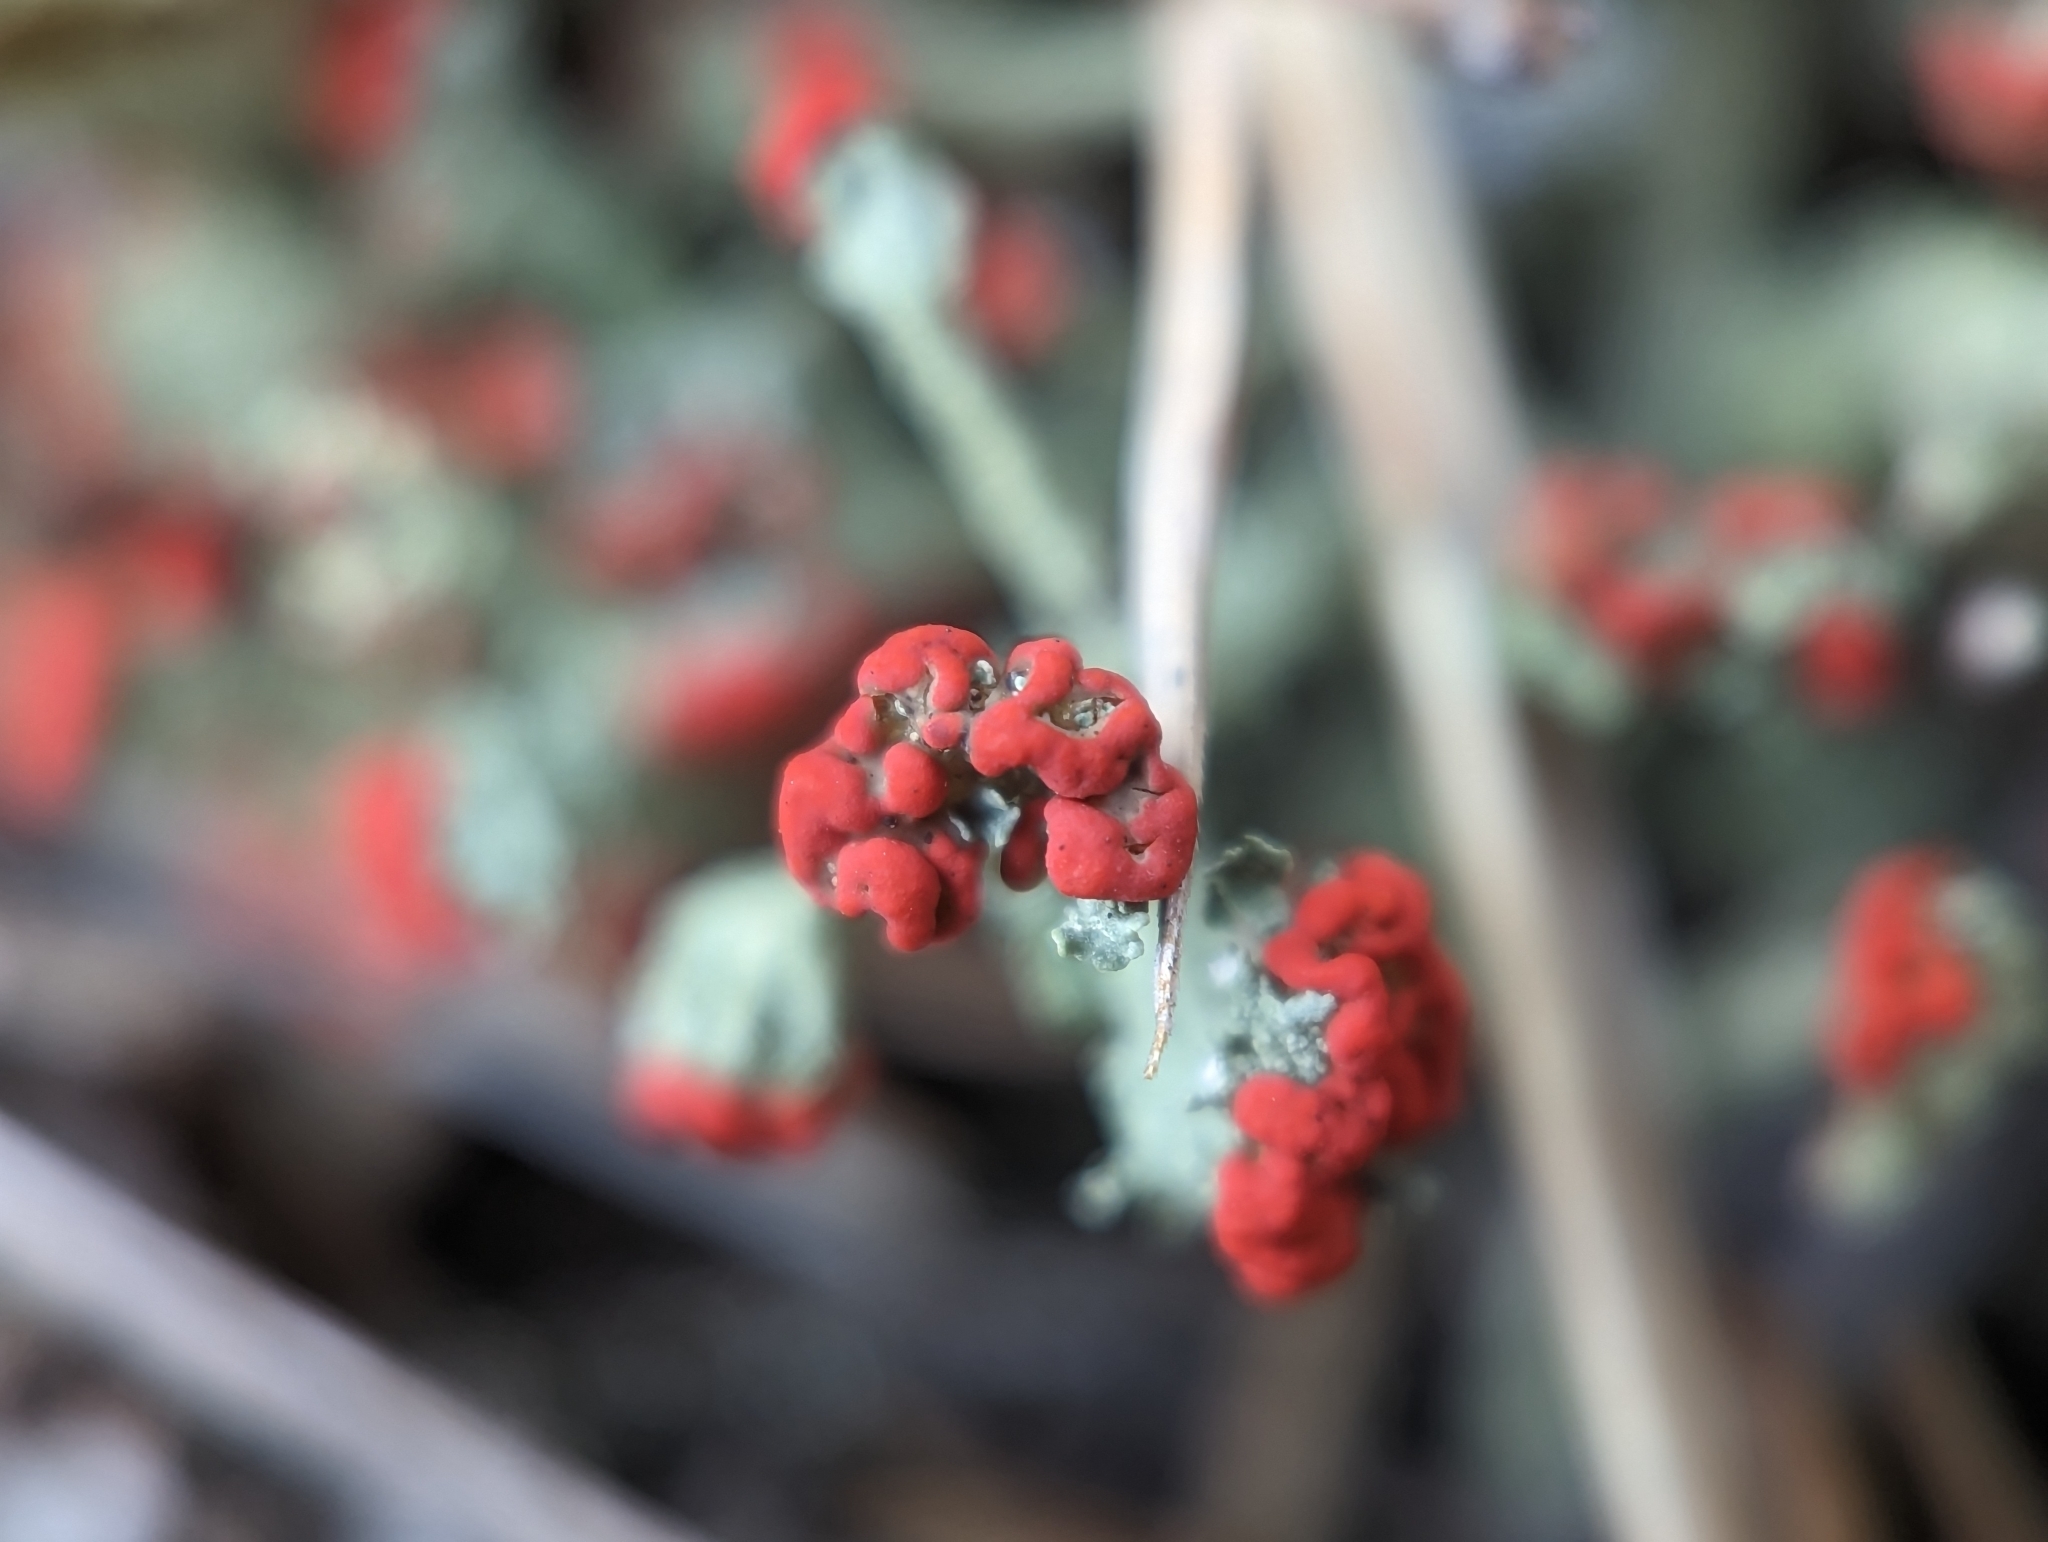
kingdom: Fungi
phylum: Ascomycota
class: Lecanoromycetes
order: Lecanorales
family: Cladoniaceae
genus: Cladonia
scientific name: Cladonia cristatella
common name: British soldier lichen
